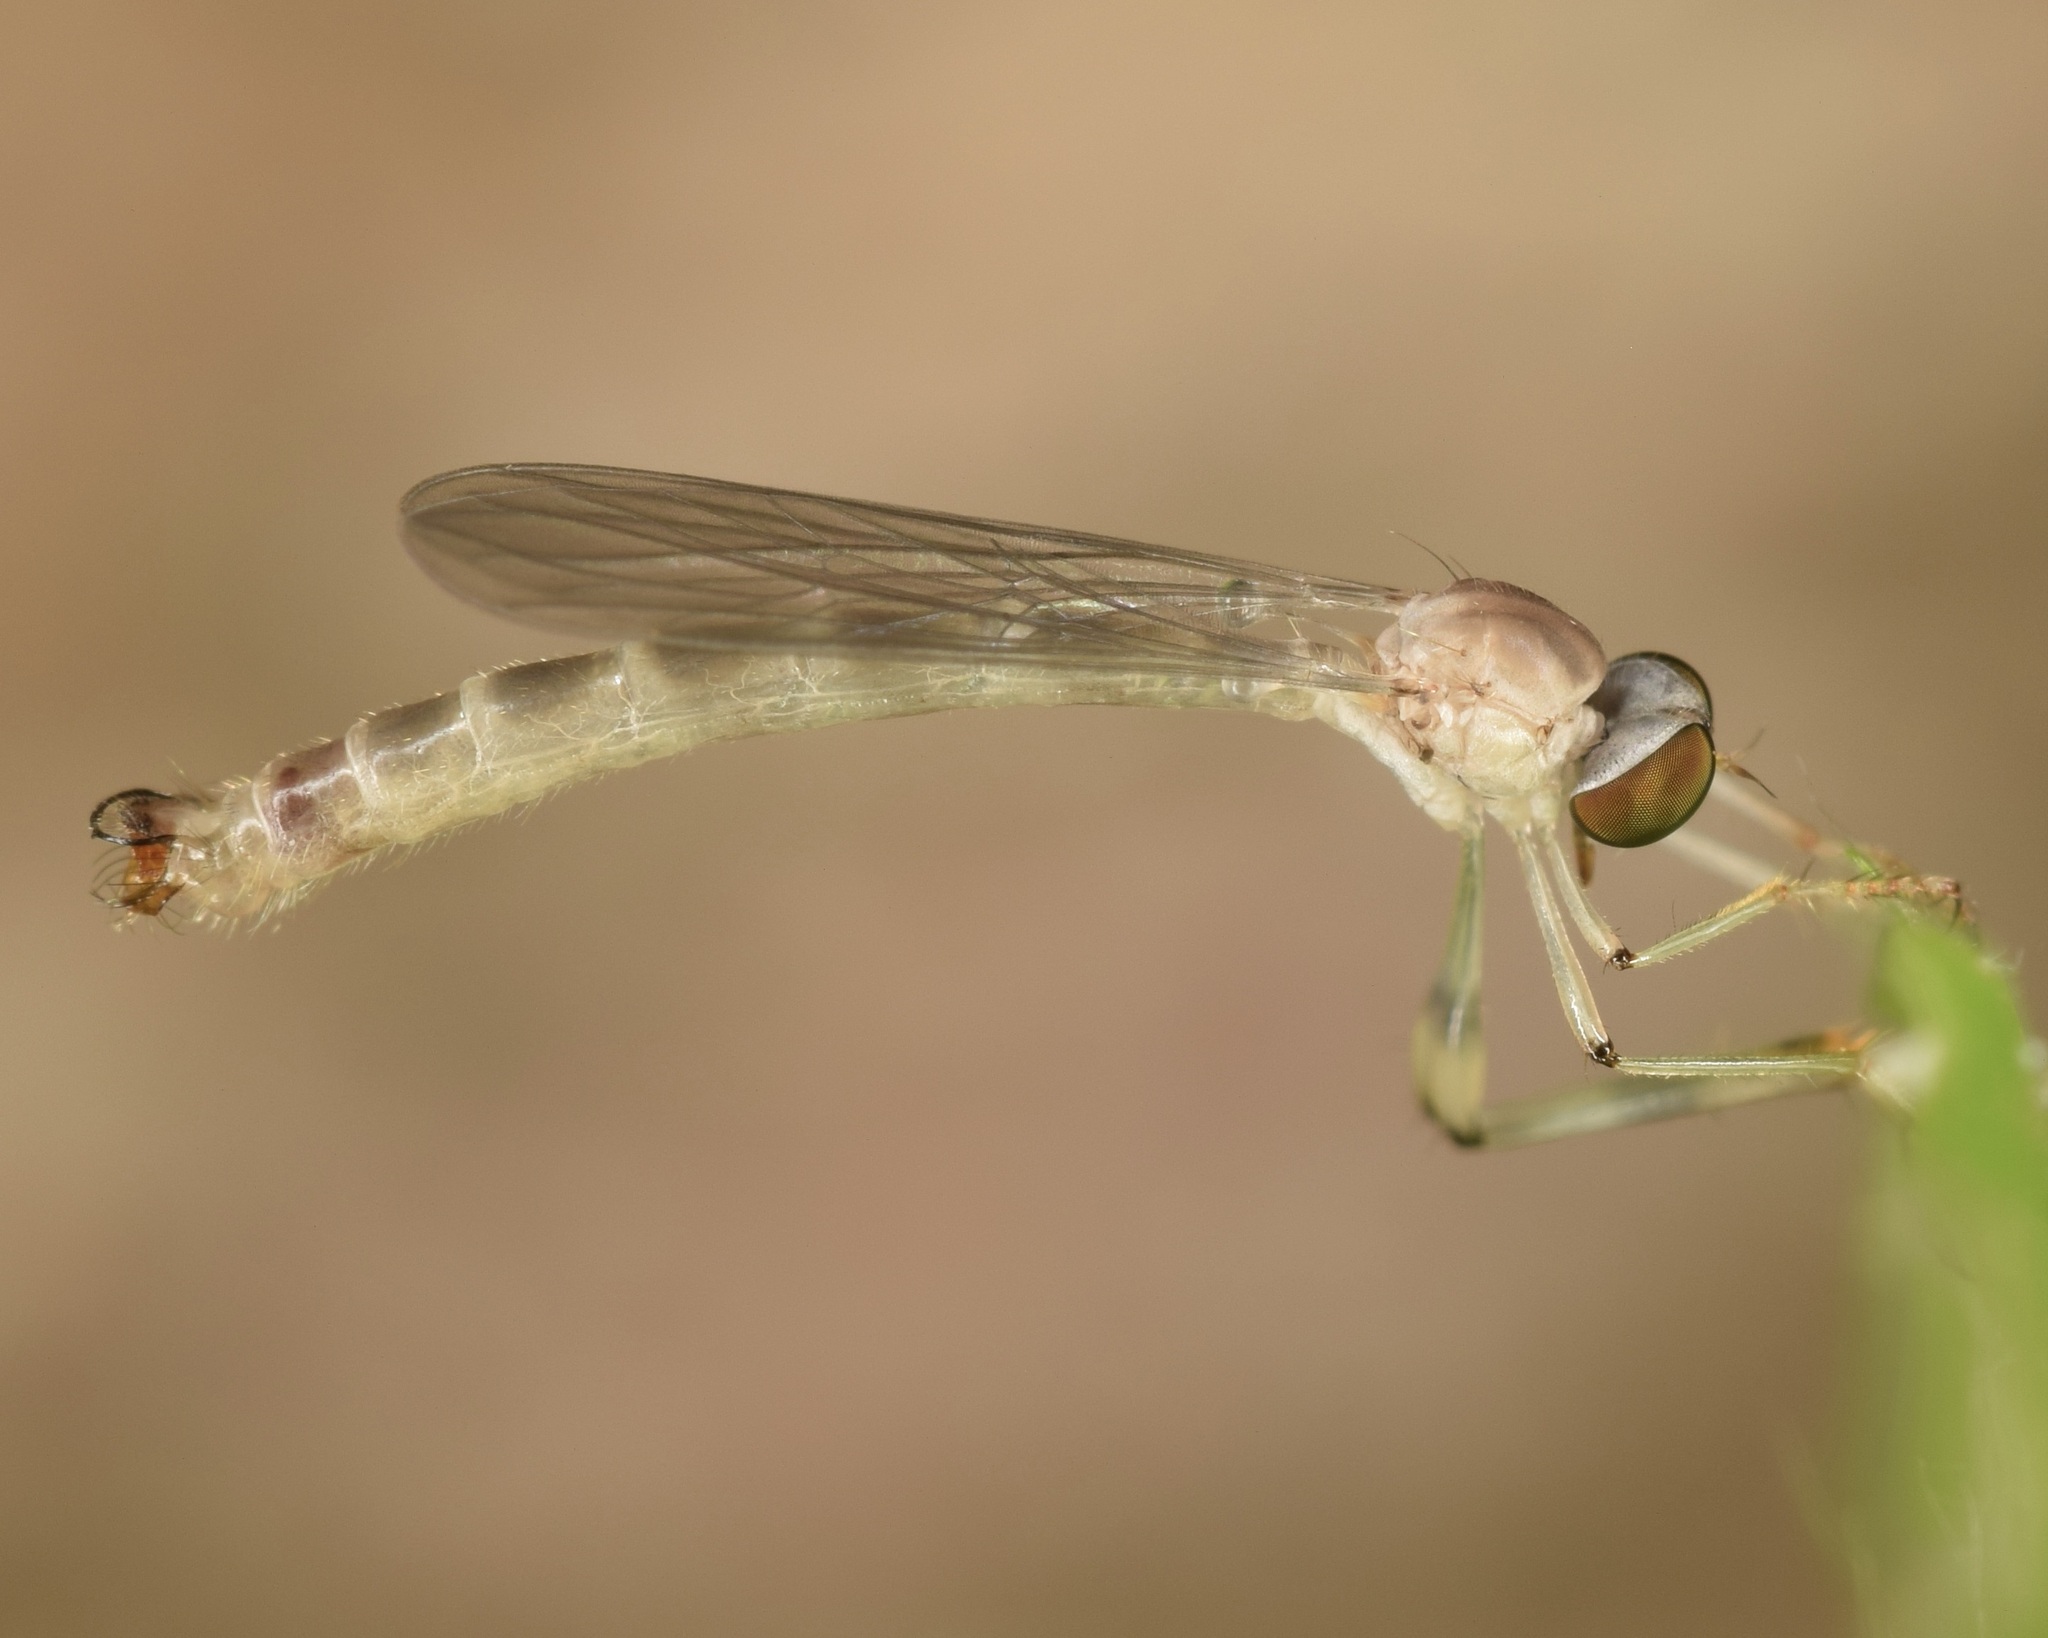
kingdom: Animalia
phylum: Arthropoda
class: Insecta
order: Diptera
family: Asilidae
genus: Psilonyx
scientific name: Psilonyx annulatus
